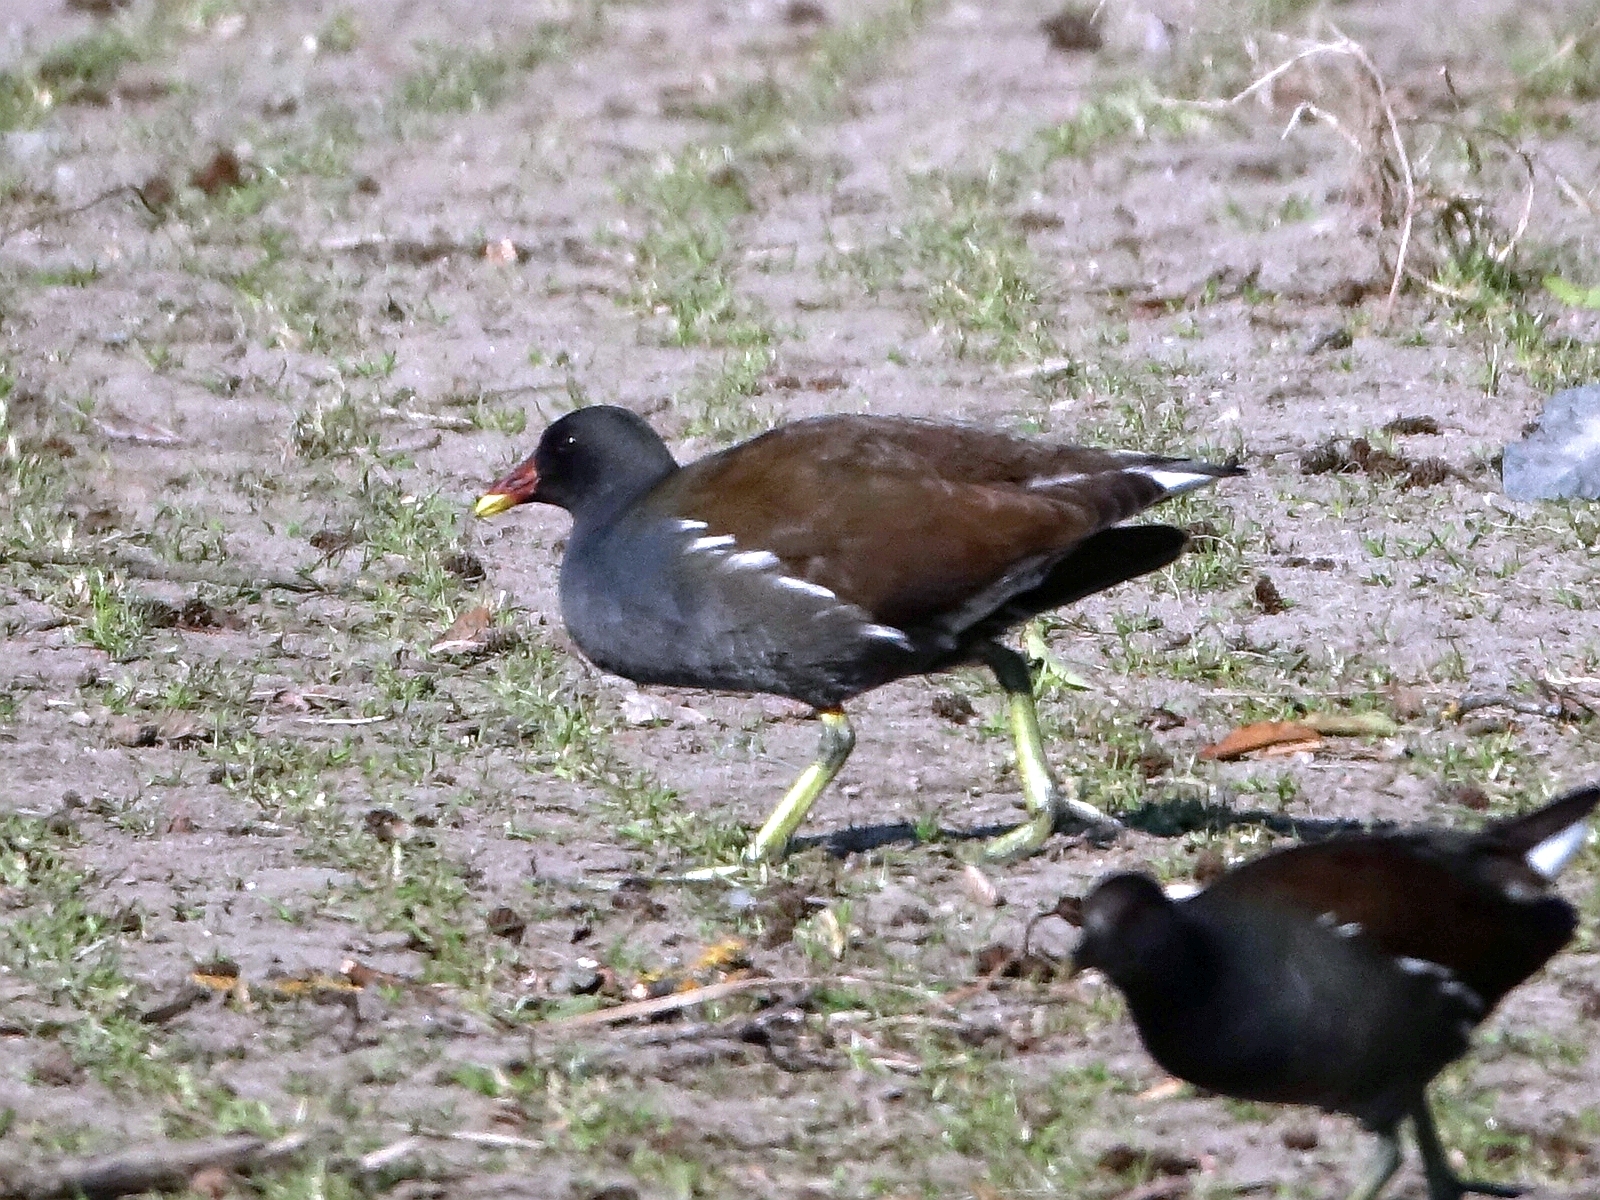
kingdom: Animalia
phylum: Chordata
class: Aves
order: Gruiformes
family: Rallidae
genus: Gallinula
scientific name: Gallinula chloropus
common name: Common moorhen
